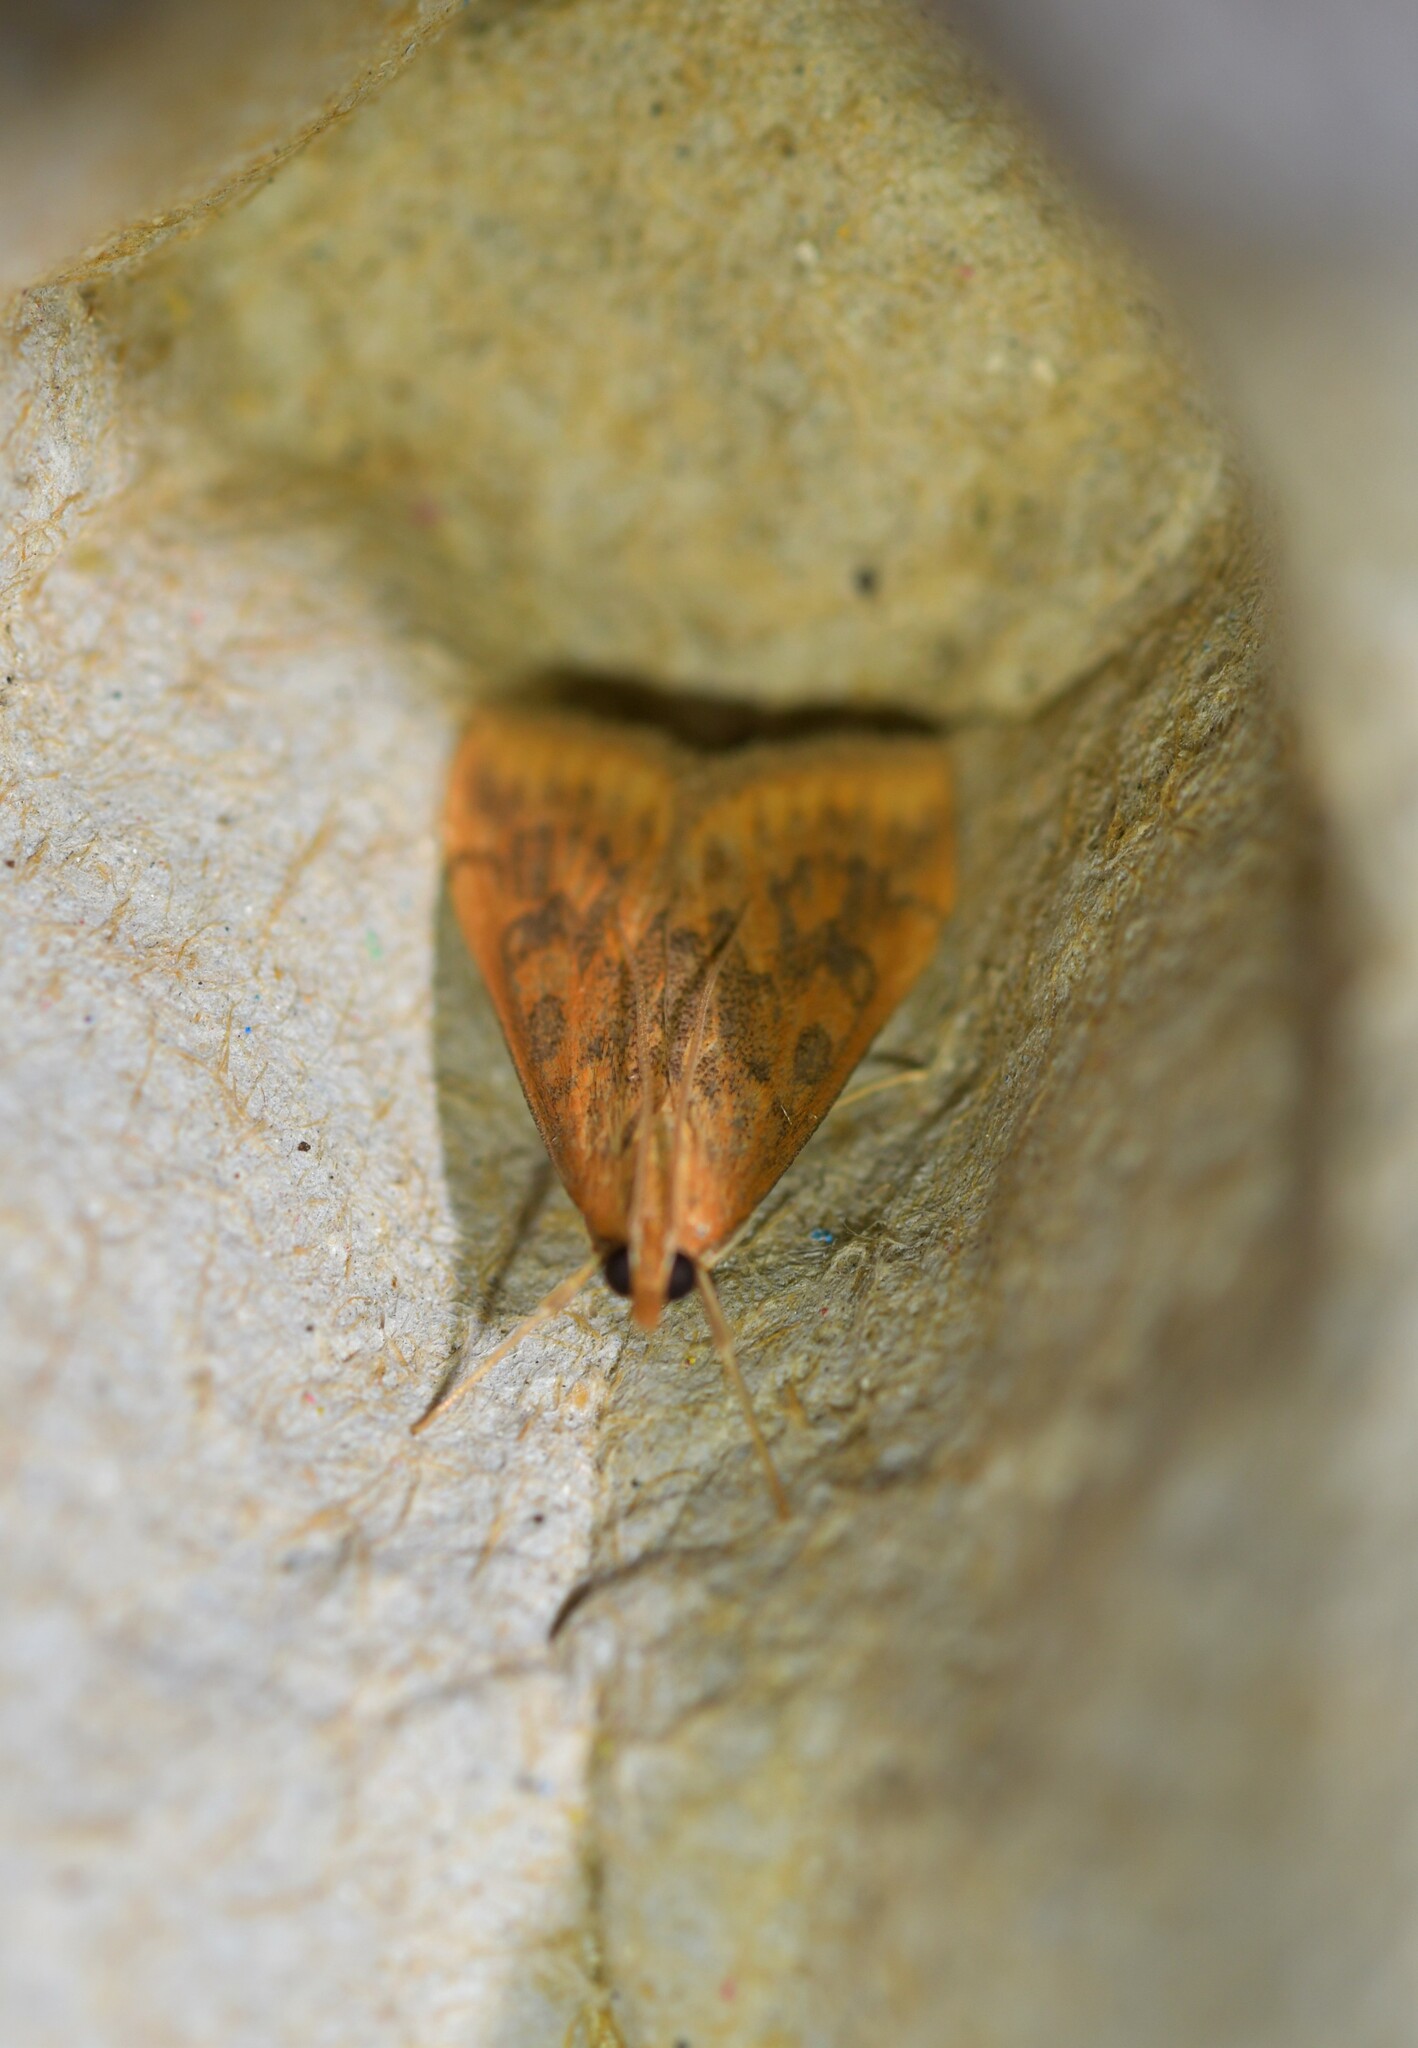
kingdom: Animalia
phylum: Arthropoda
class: Insecta
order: Lepidoptera
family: Crambidae
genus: Udea
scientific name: Udea ferrugalis
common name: Rusty dot
